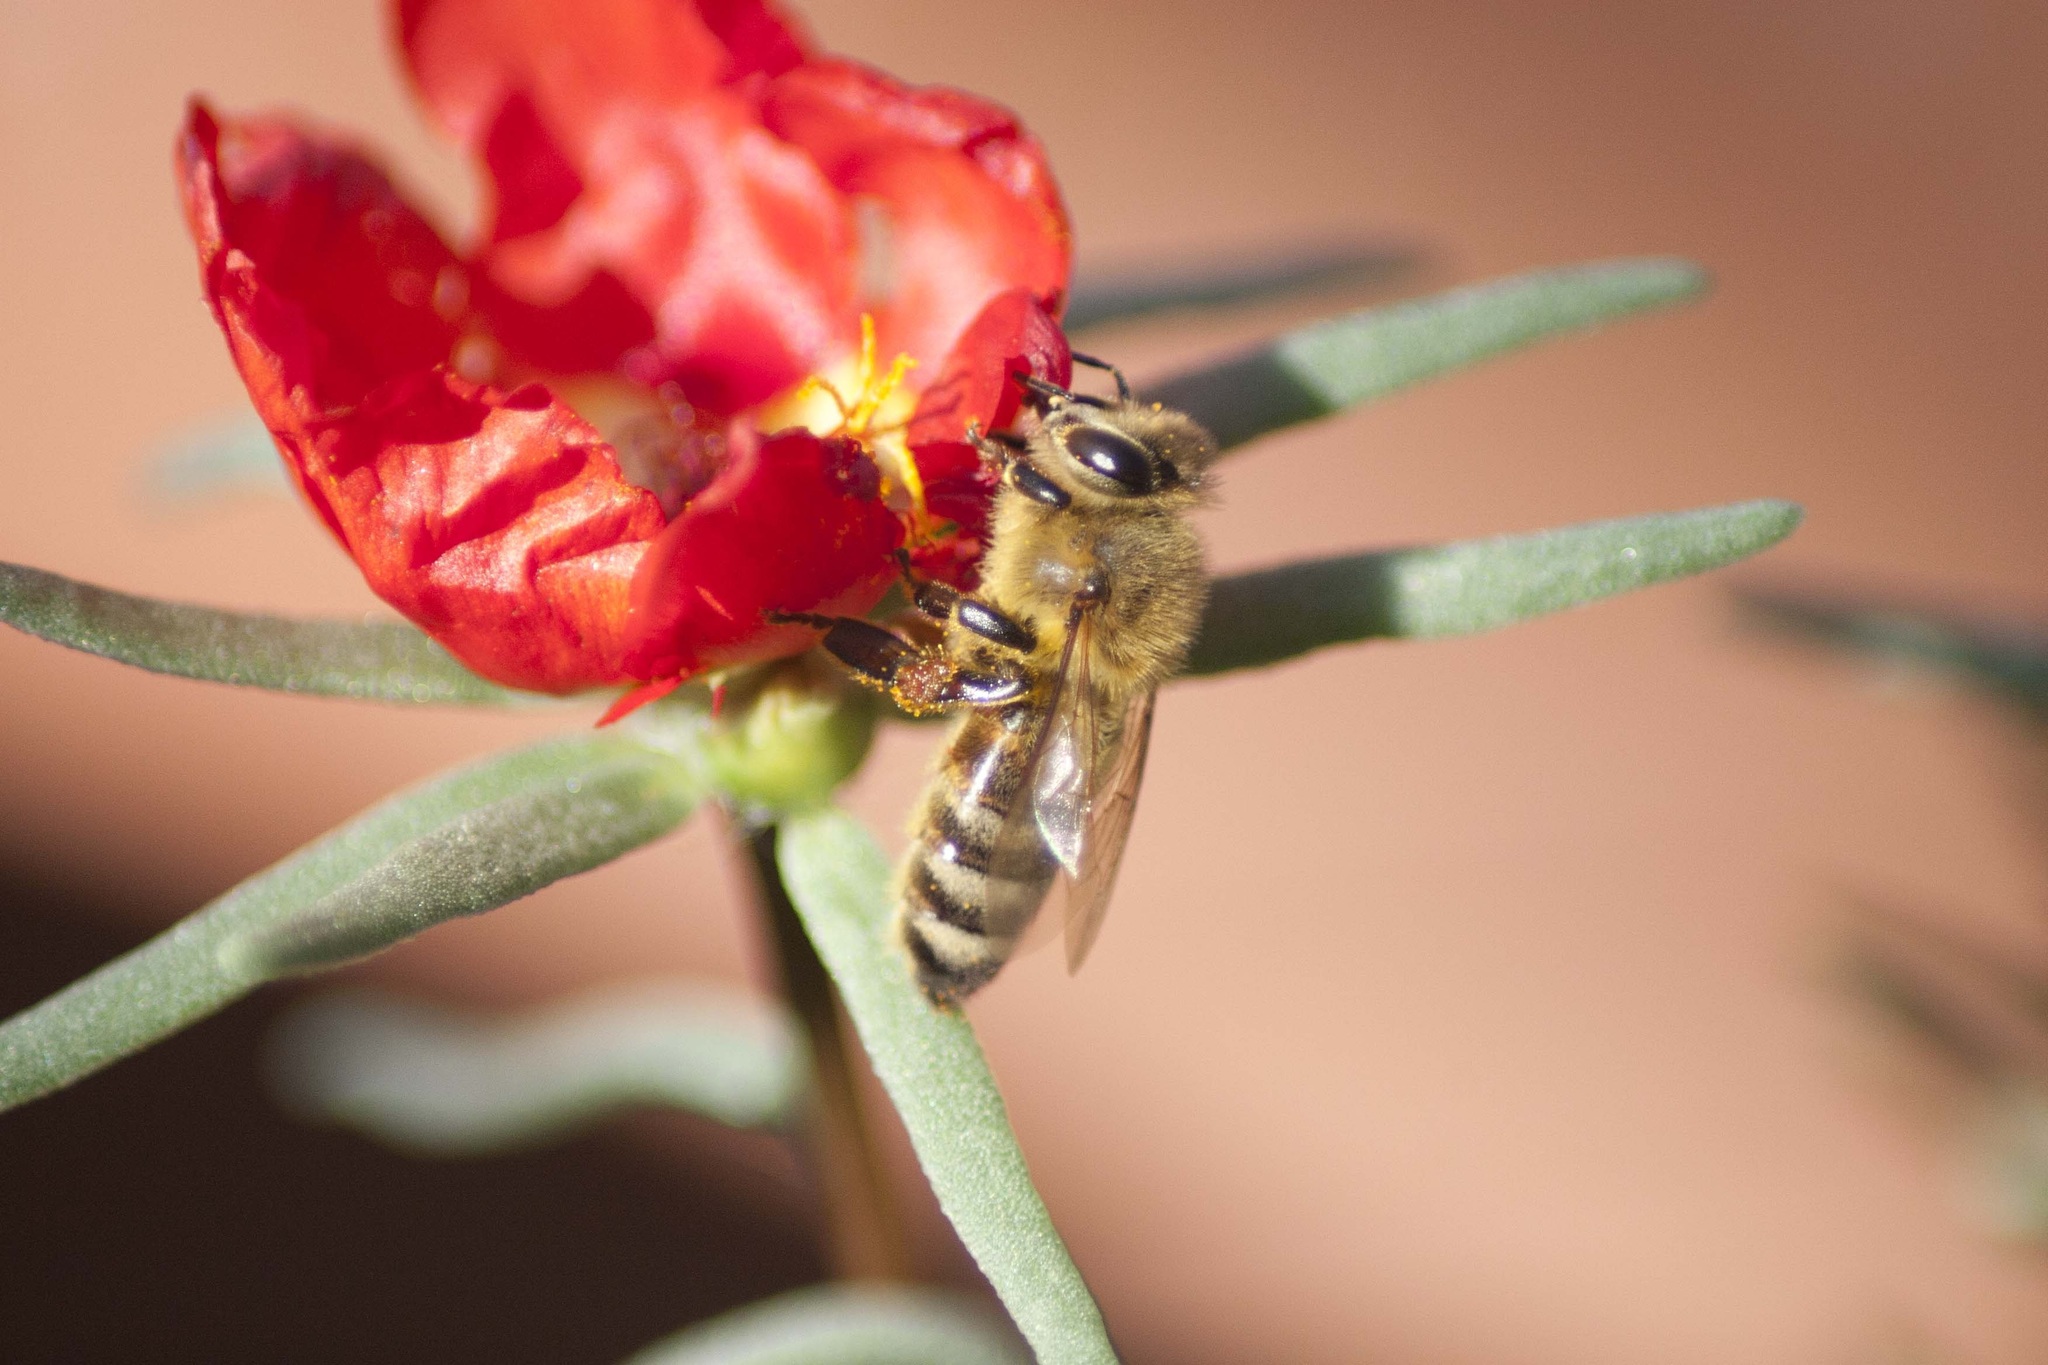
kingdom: Animalia
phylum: Arthropoda
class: Insecta
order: Hymenoptera
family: Apidae
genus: Apis
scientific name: Apis mellifera
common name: Honey bee
